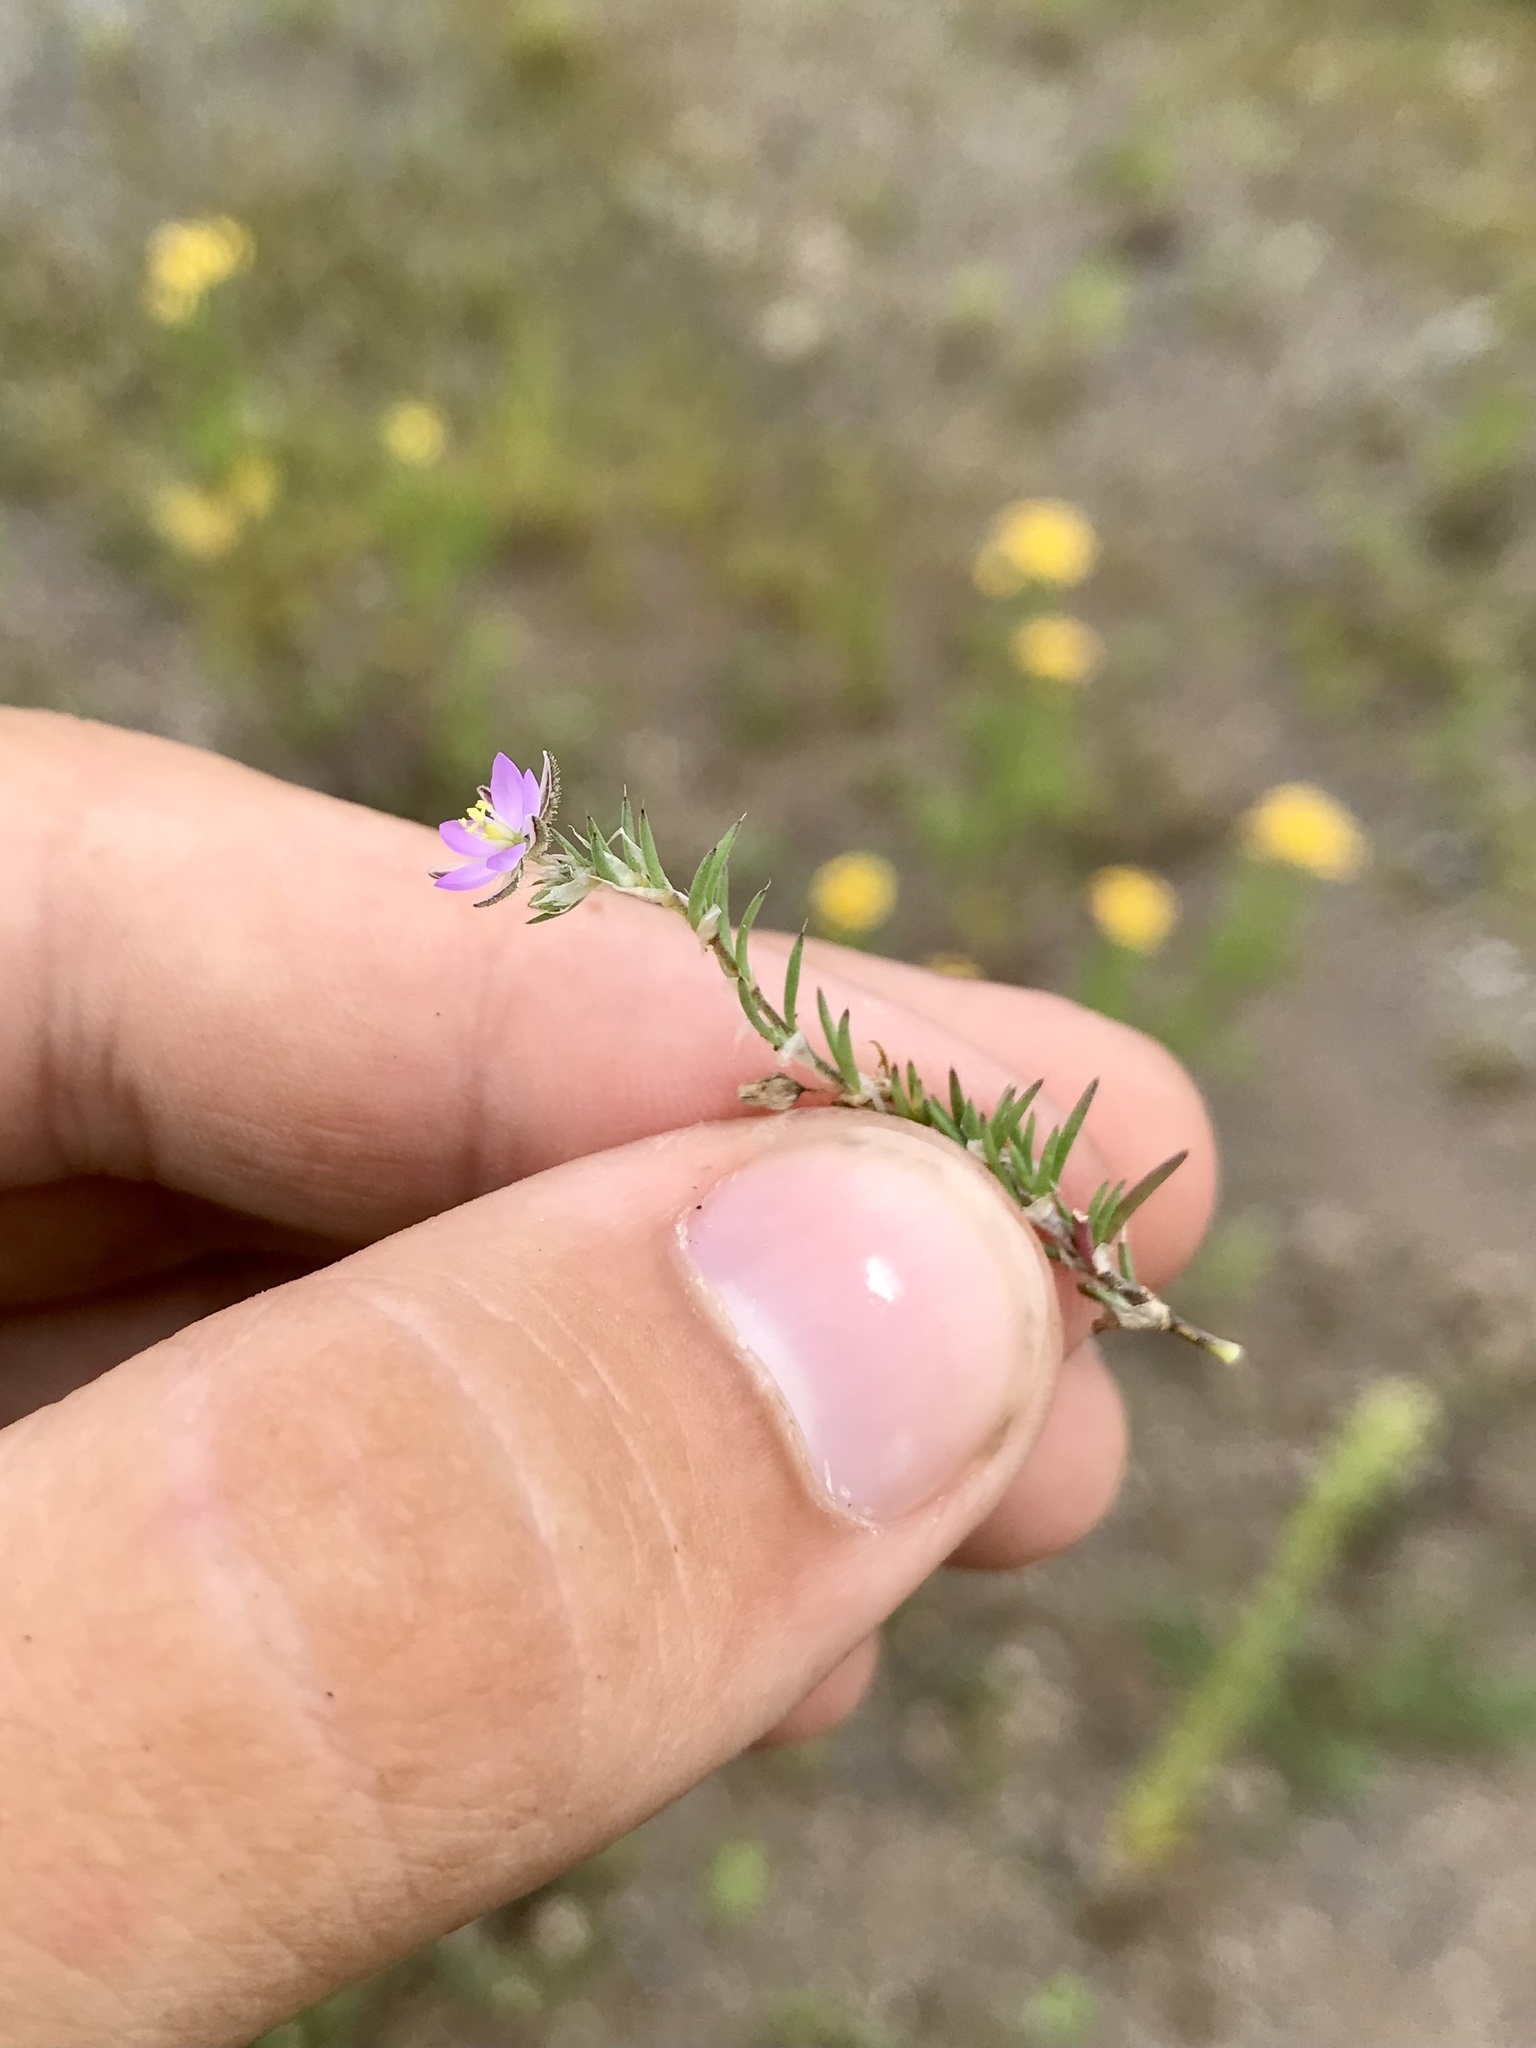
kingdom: Plantae
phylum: Tracheophyta
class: Magnoliopsida
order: Caryophyllales
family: Caryophyllaceae
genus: Spergularia
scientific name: Spergularia rubra
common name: Red sand-spurrey
